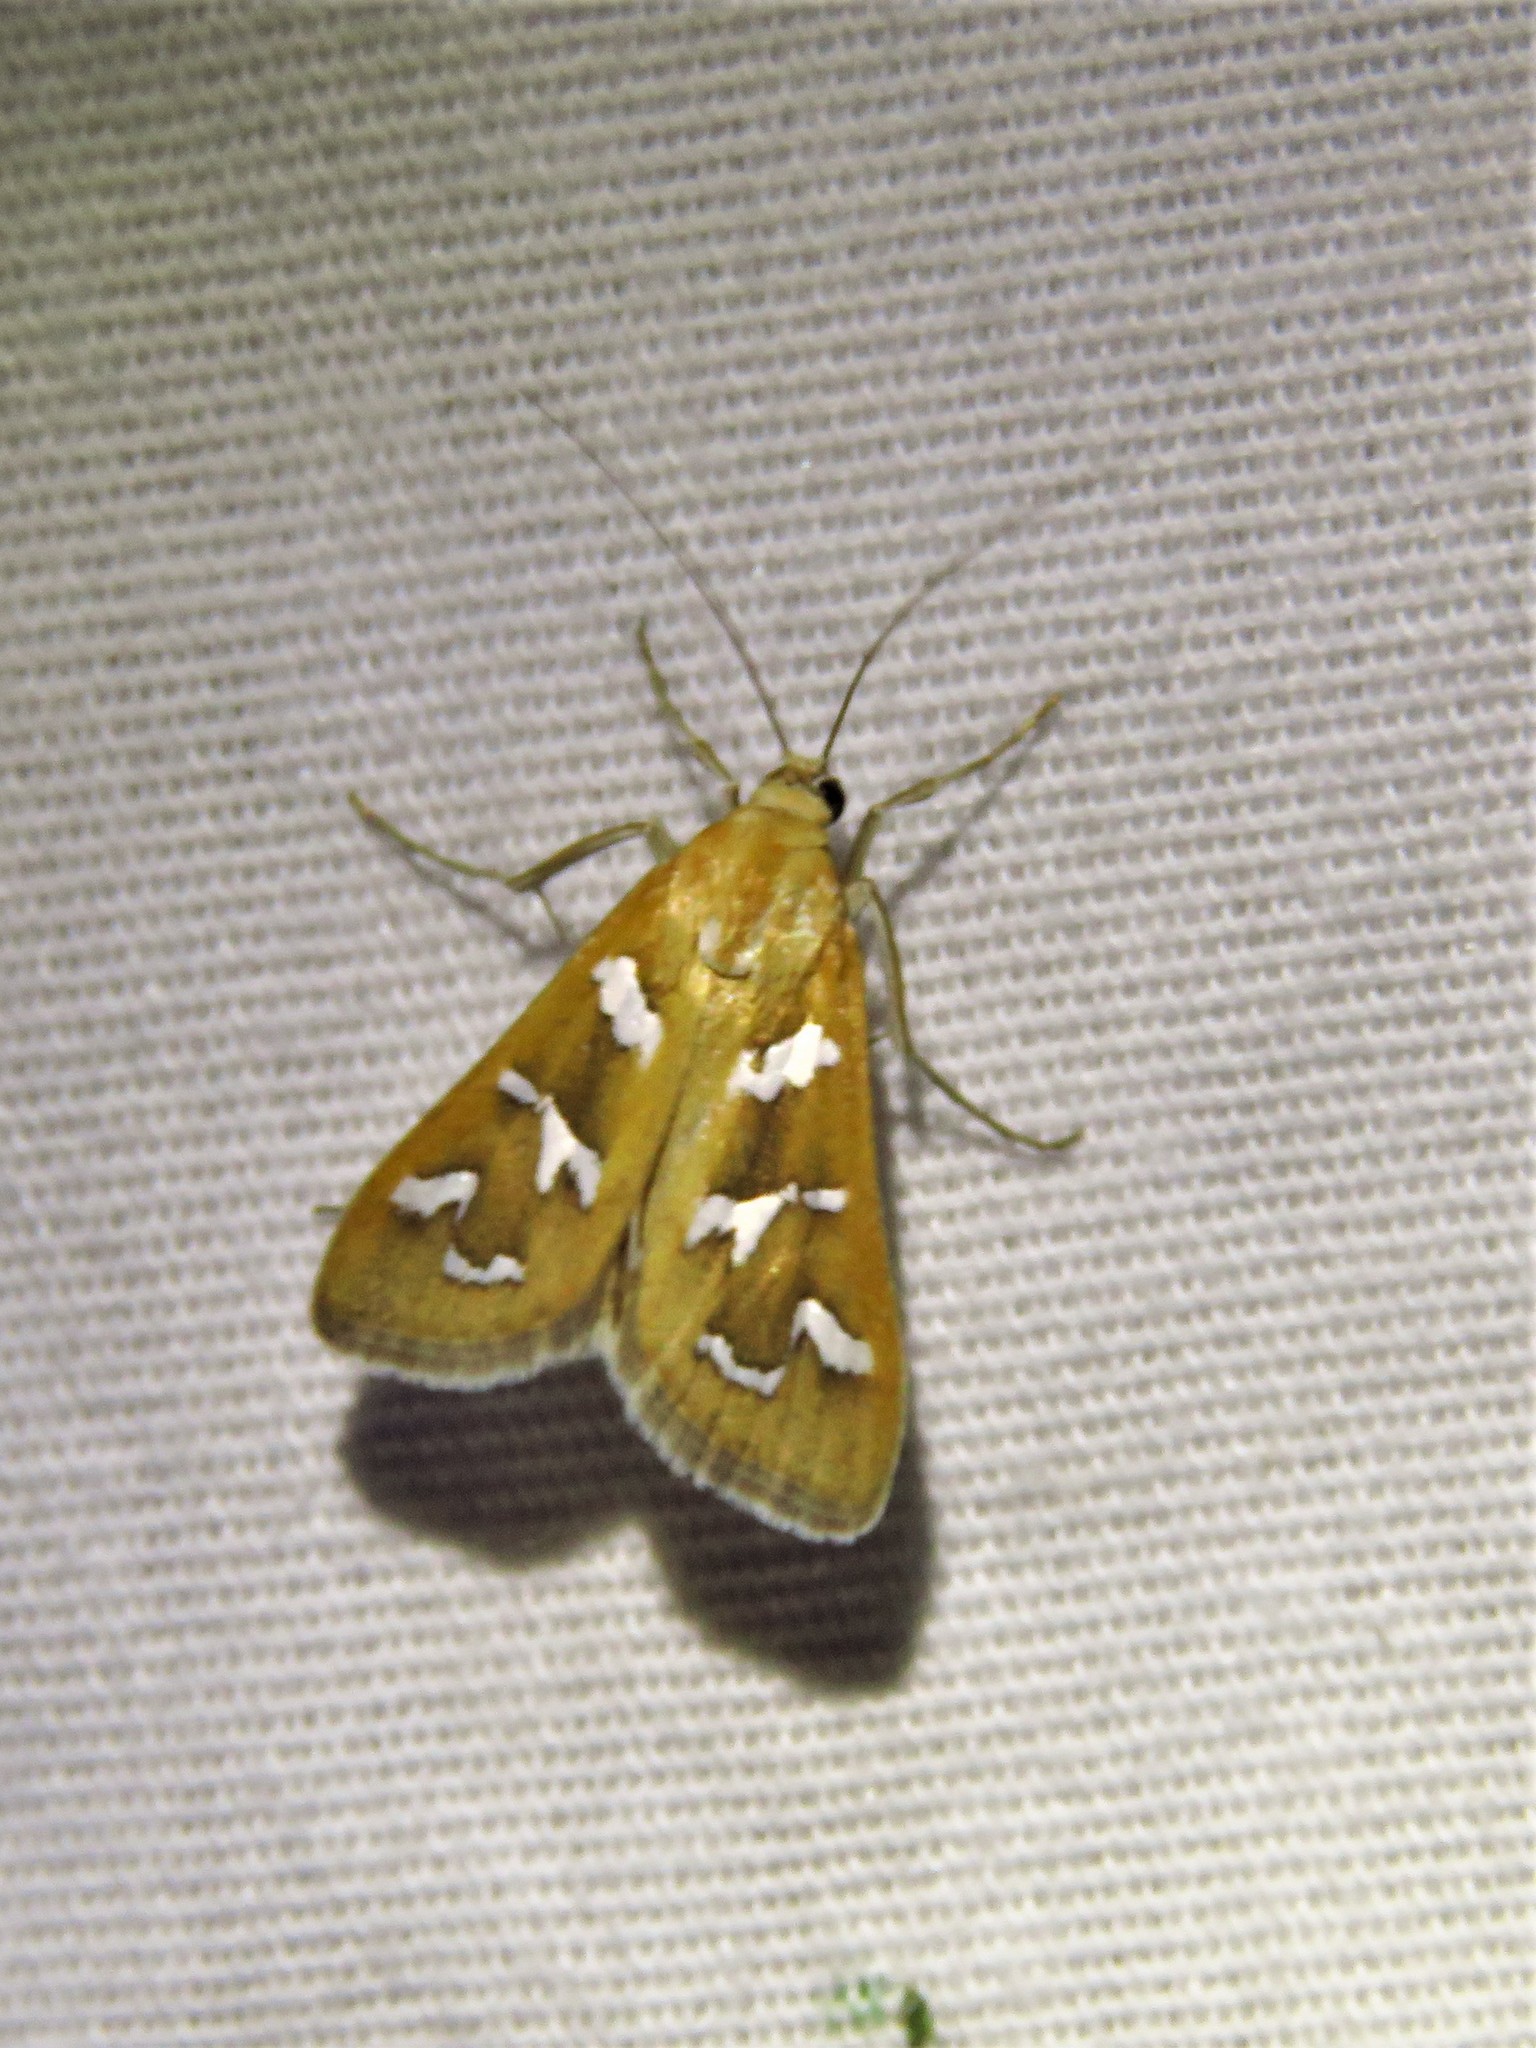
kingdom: Animalia
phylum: Arthropoda
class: Insecta
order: Lepidoptera
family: Crambidae
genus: Diastictis
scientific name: Diastictis fracturalis
